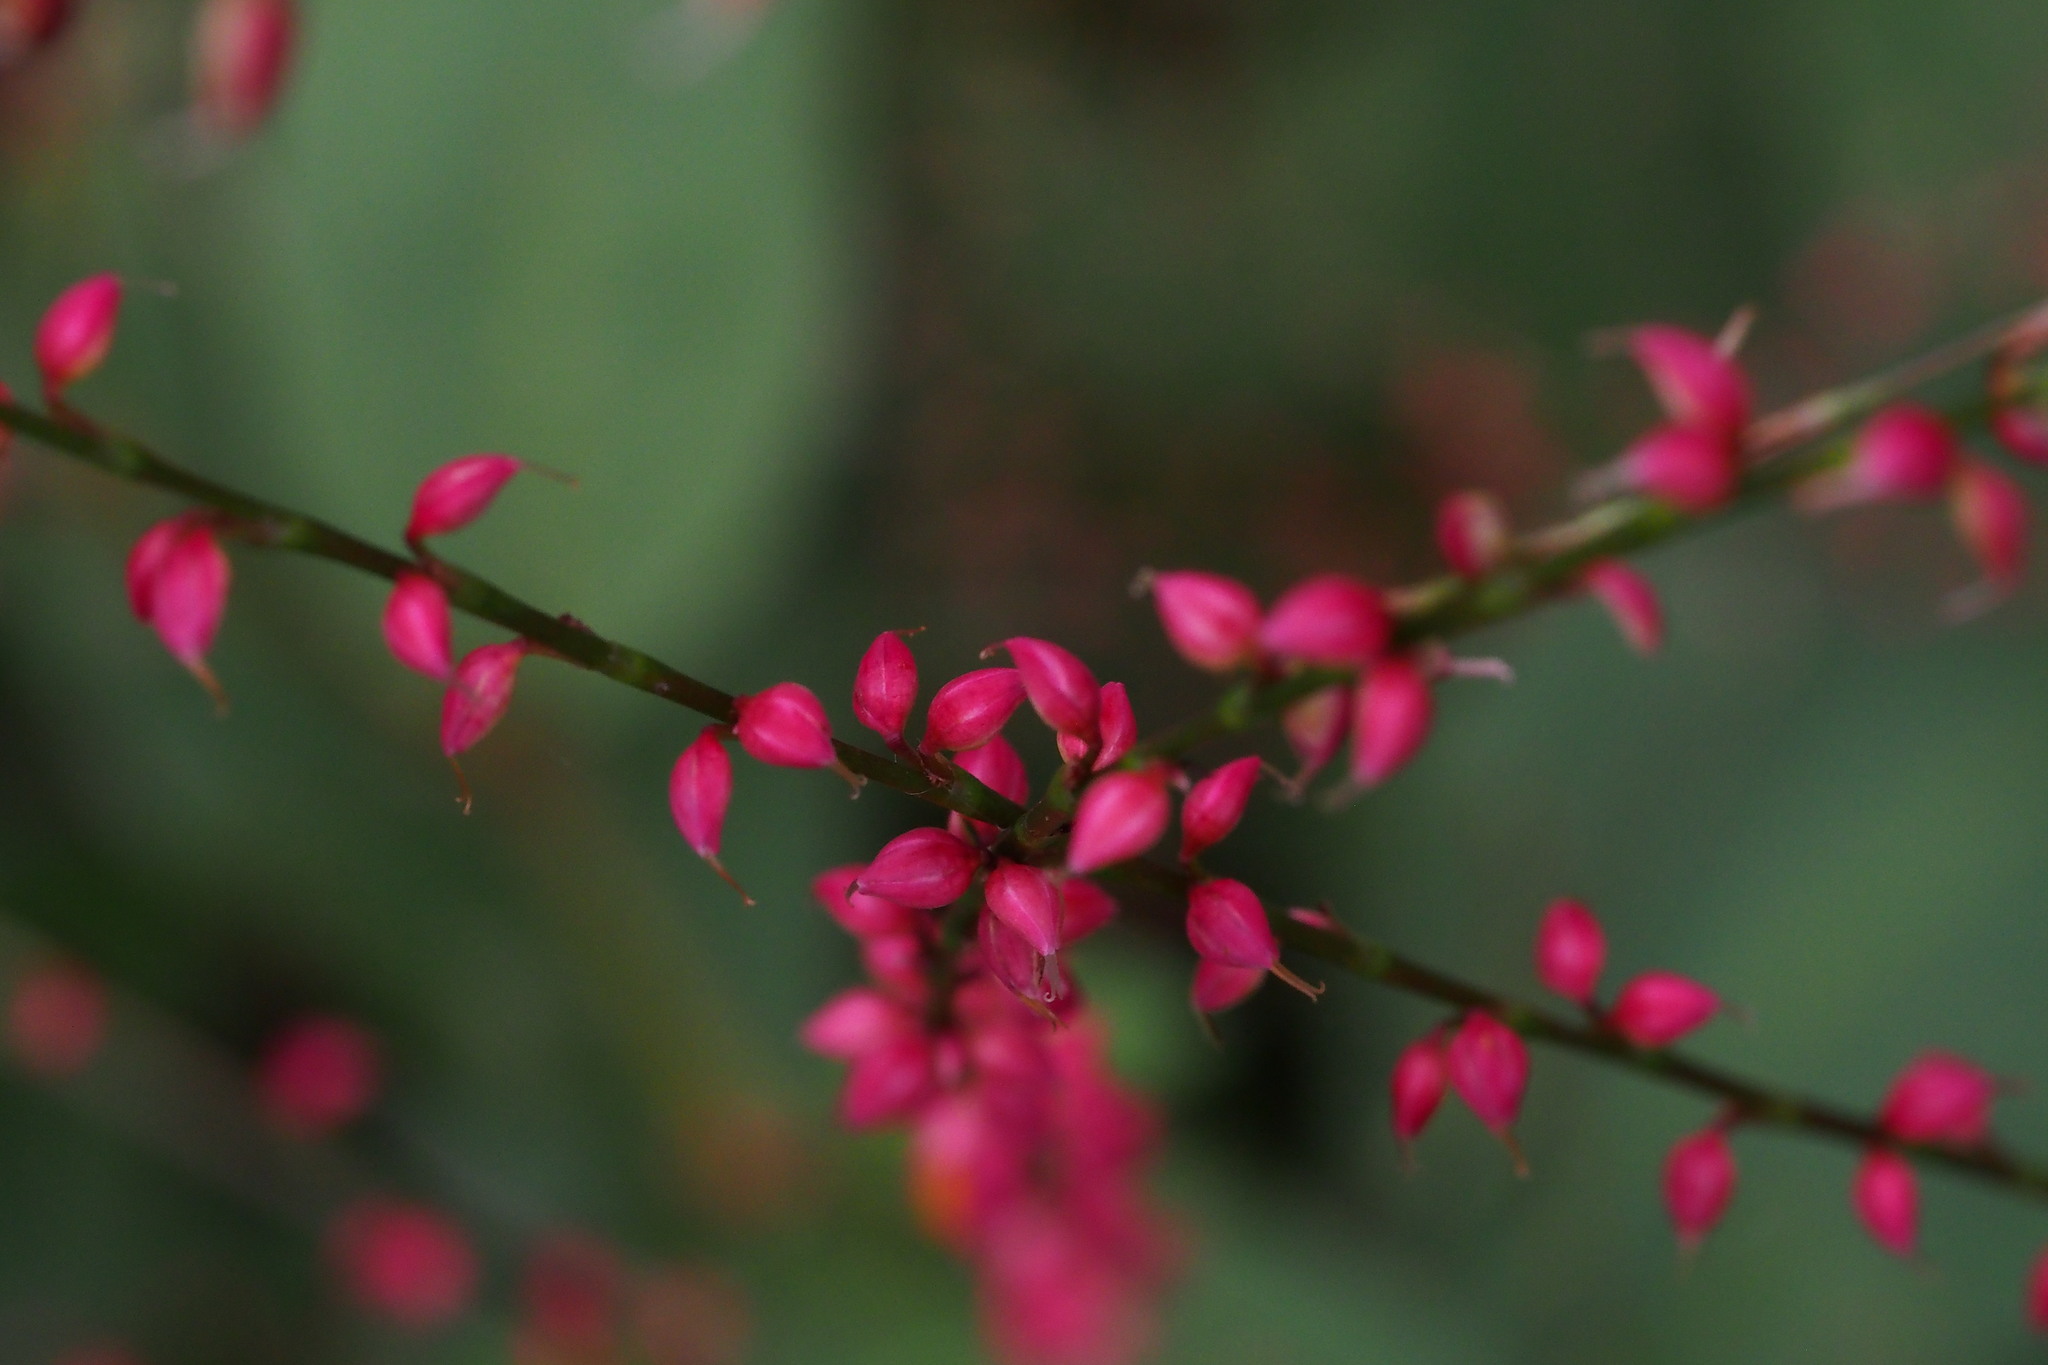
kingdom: Plantae
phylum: Tracheophyta
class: Magnoliopsida
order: Caryophyllales
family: Polygonaceae
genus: Persicaria
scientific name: Persicaria filiformis
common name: Asian jumpseed
